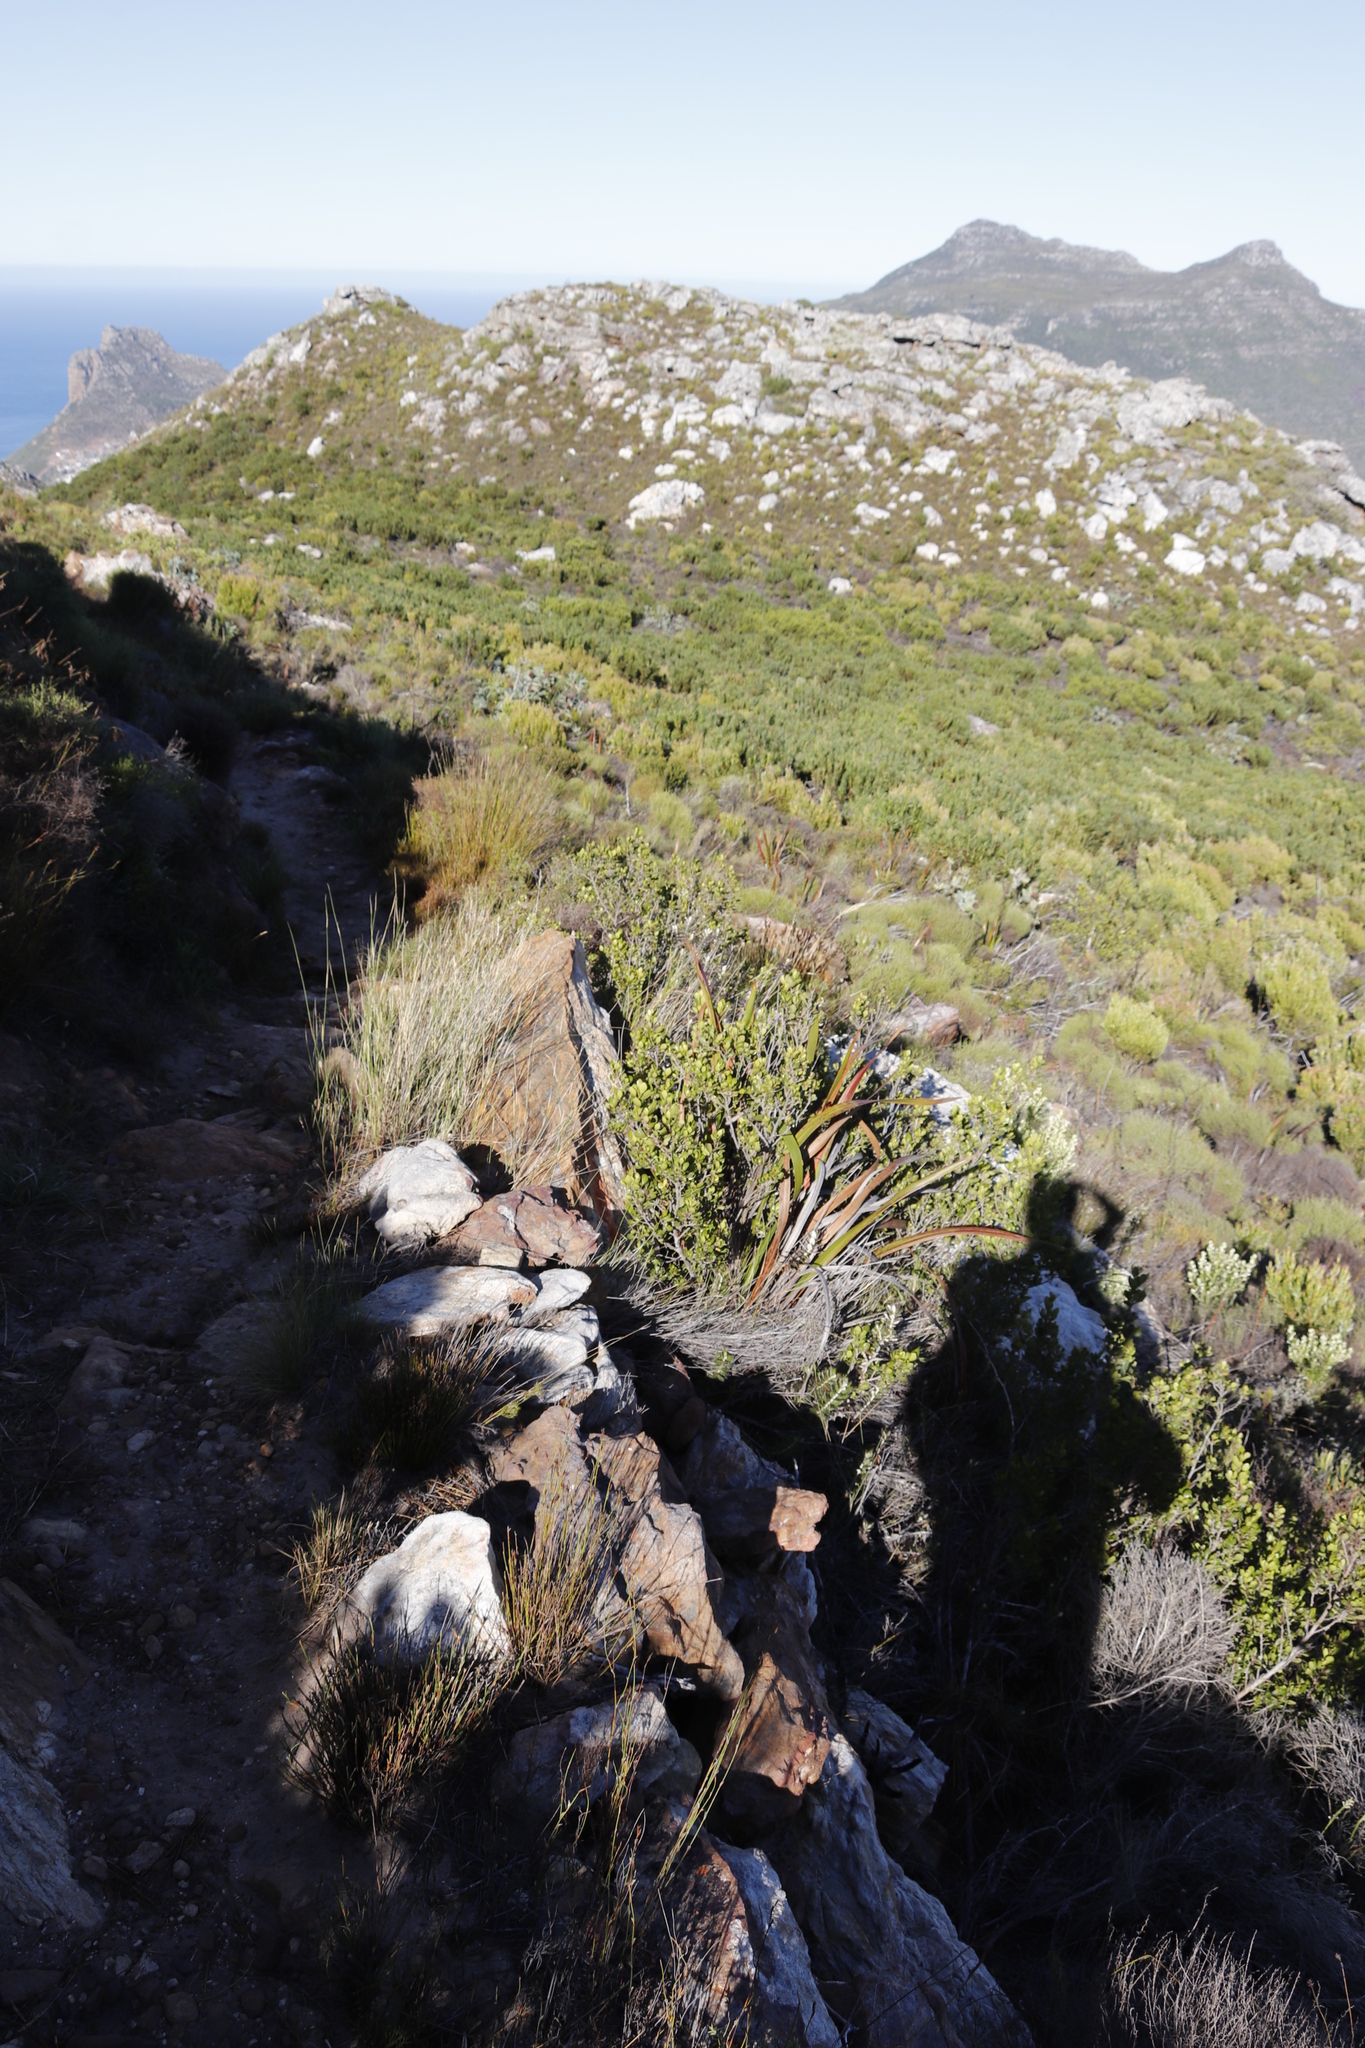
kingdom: Plantae
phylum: Tracheophyta
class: Magnoliopsida
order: Sapindales
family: Anacardiaceae
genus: Searsia
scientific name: Searsia lucida
